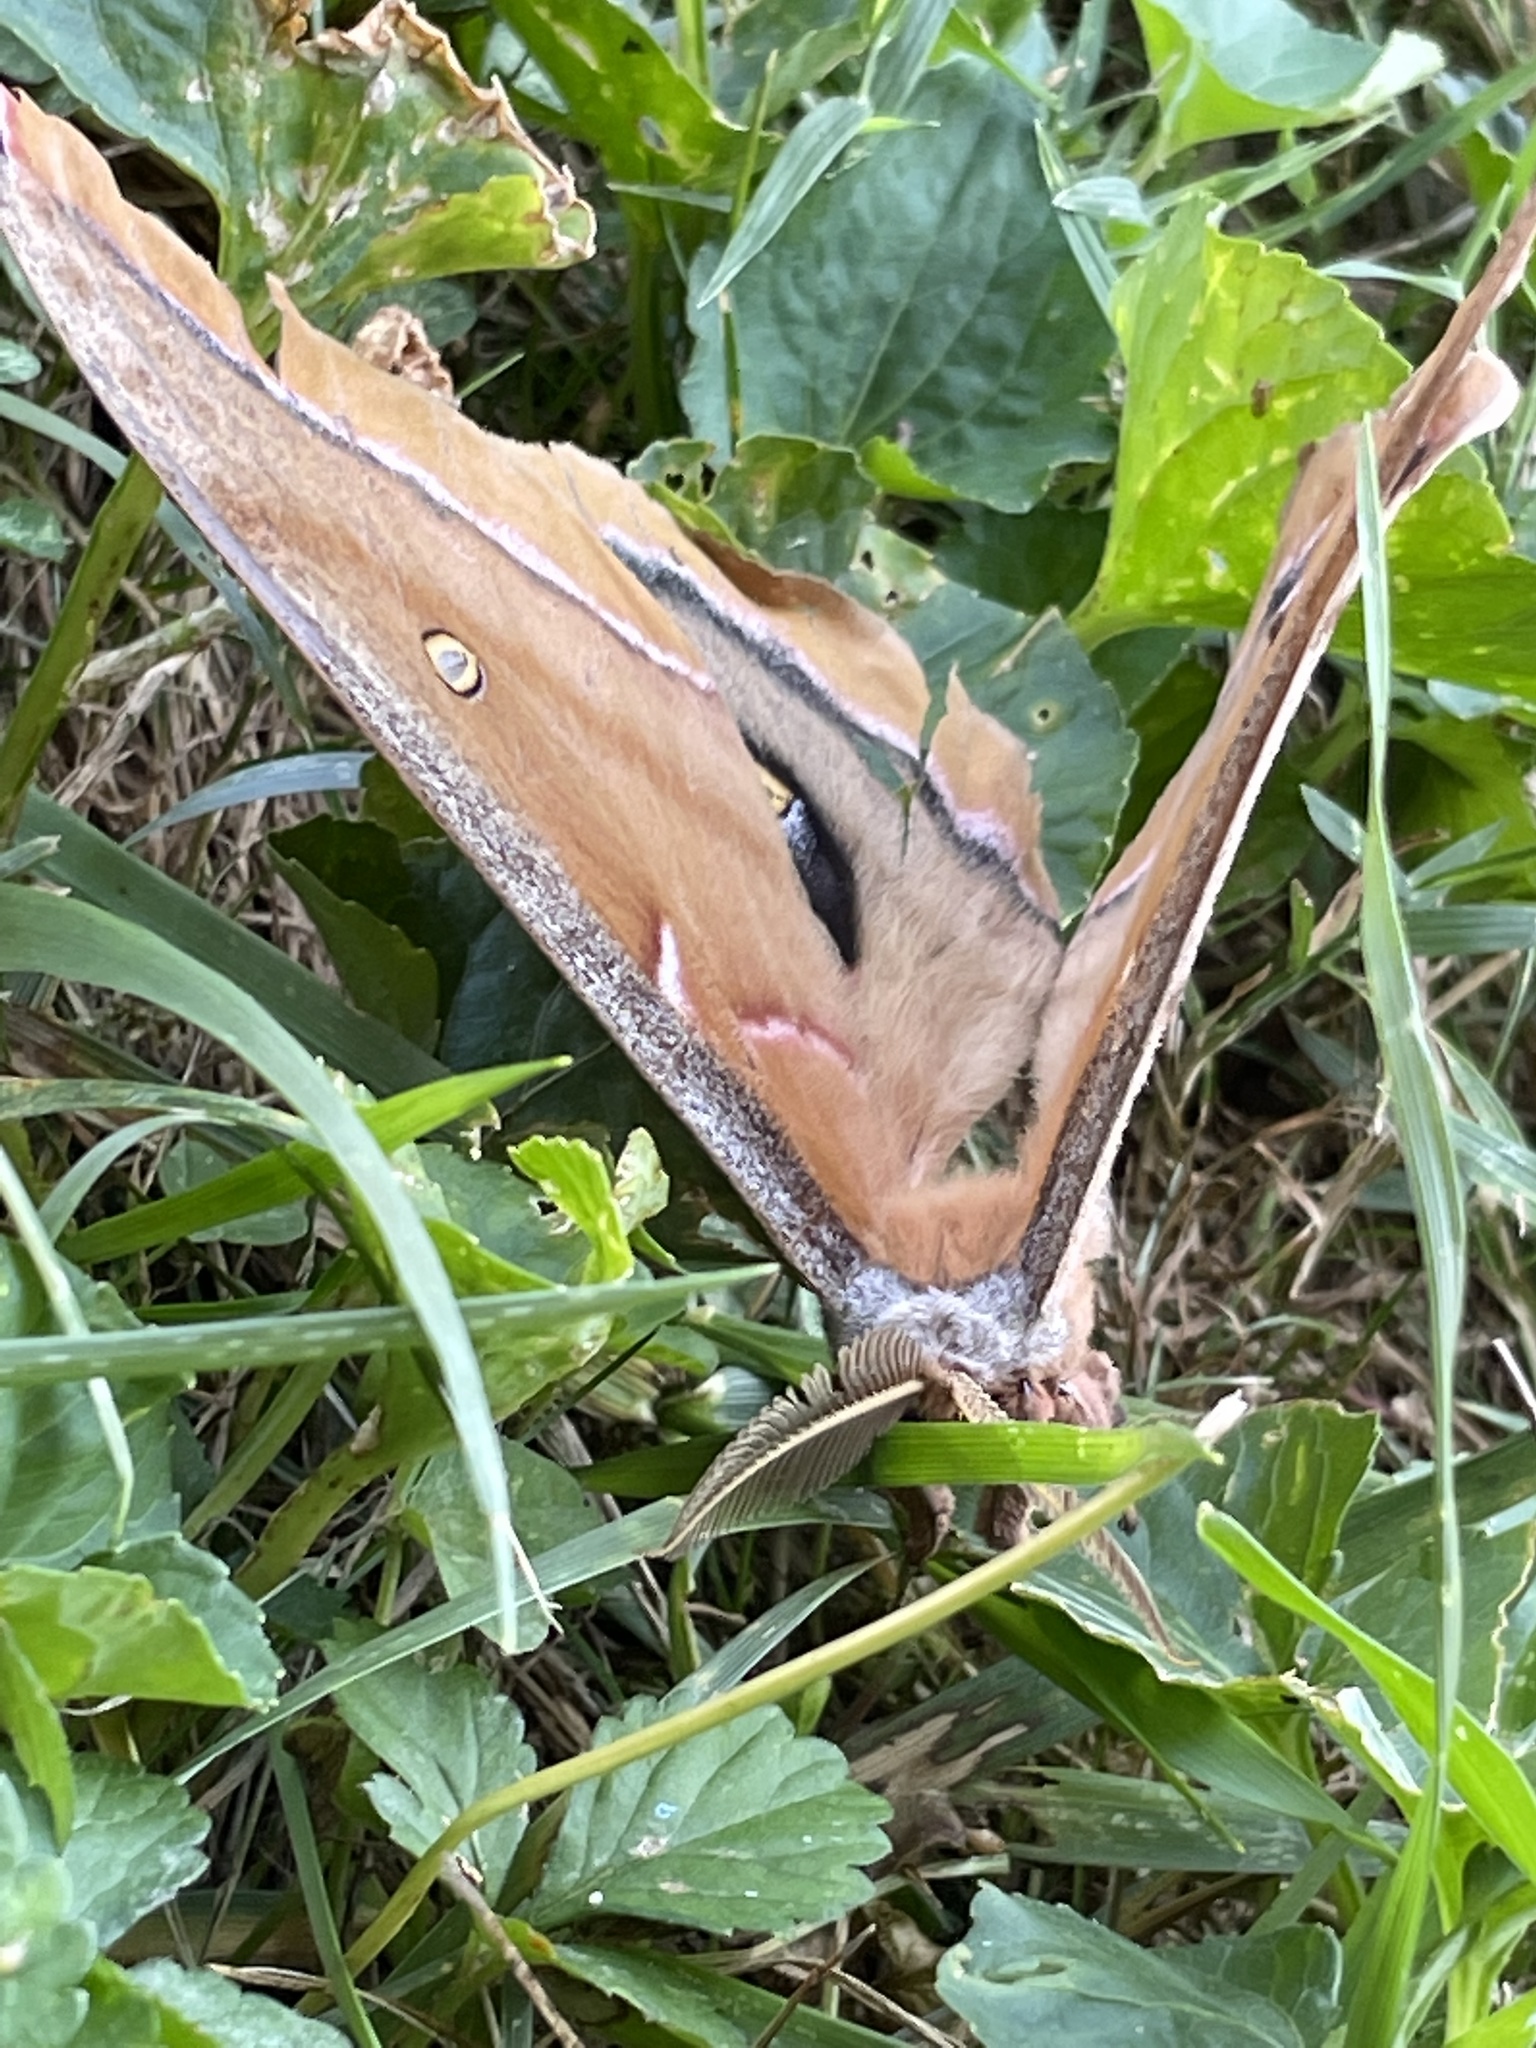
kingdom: Animalia
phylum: Arthropoda
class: Insecta
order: Lepidoptera
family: Saturniidae
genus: Antheraea
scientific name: Antheraea polyphemus
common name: Polyphemus moth
